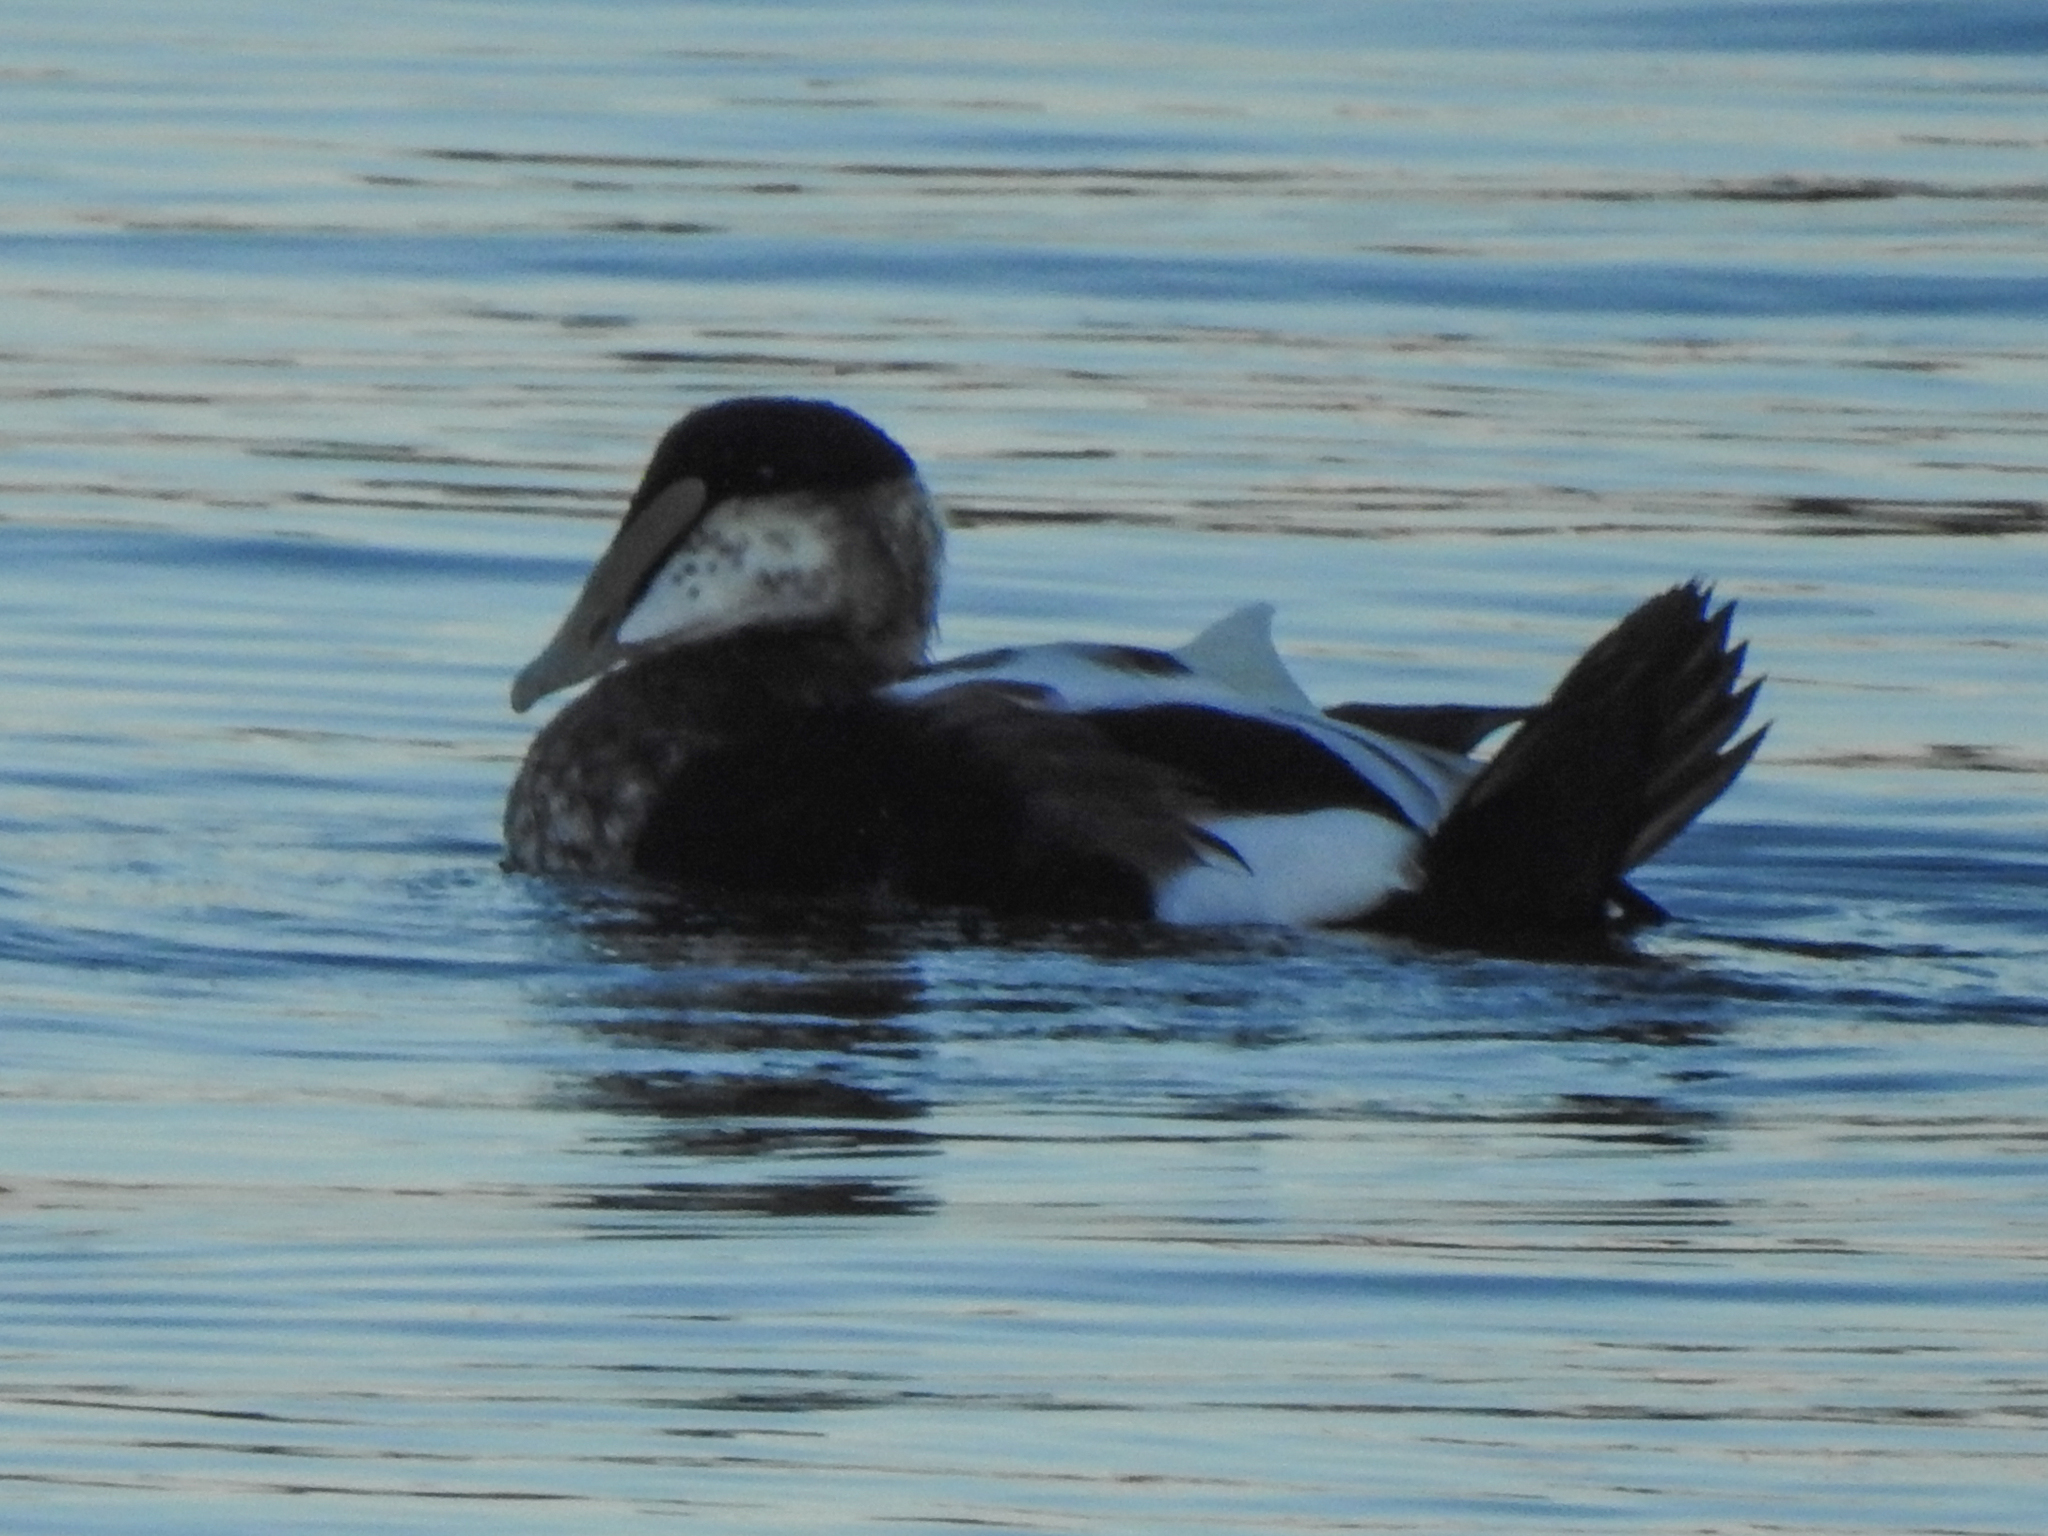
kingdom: Animalia
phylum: Chordata
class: Aves
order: Anseriformes
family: Anatidae
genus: Somateria
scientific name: Somateria mollissima
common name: Common eider
